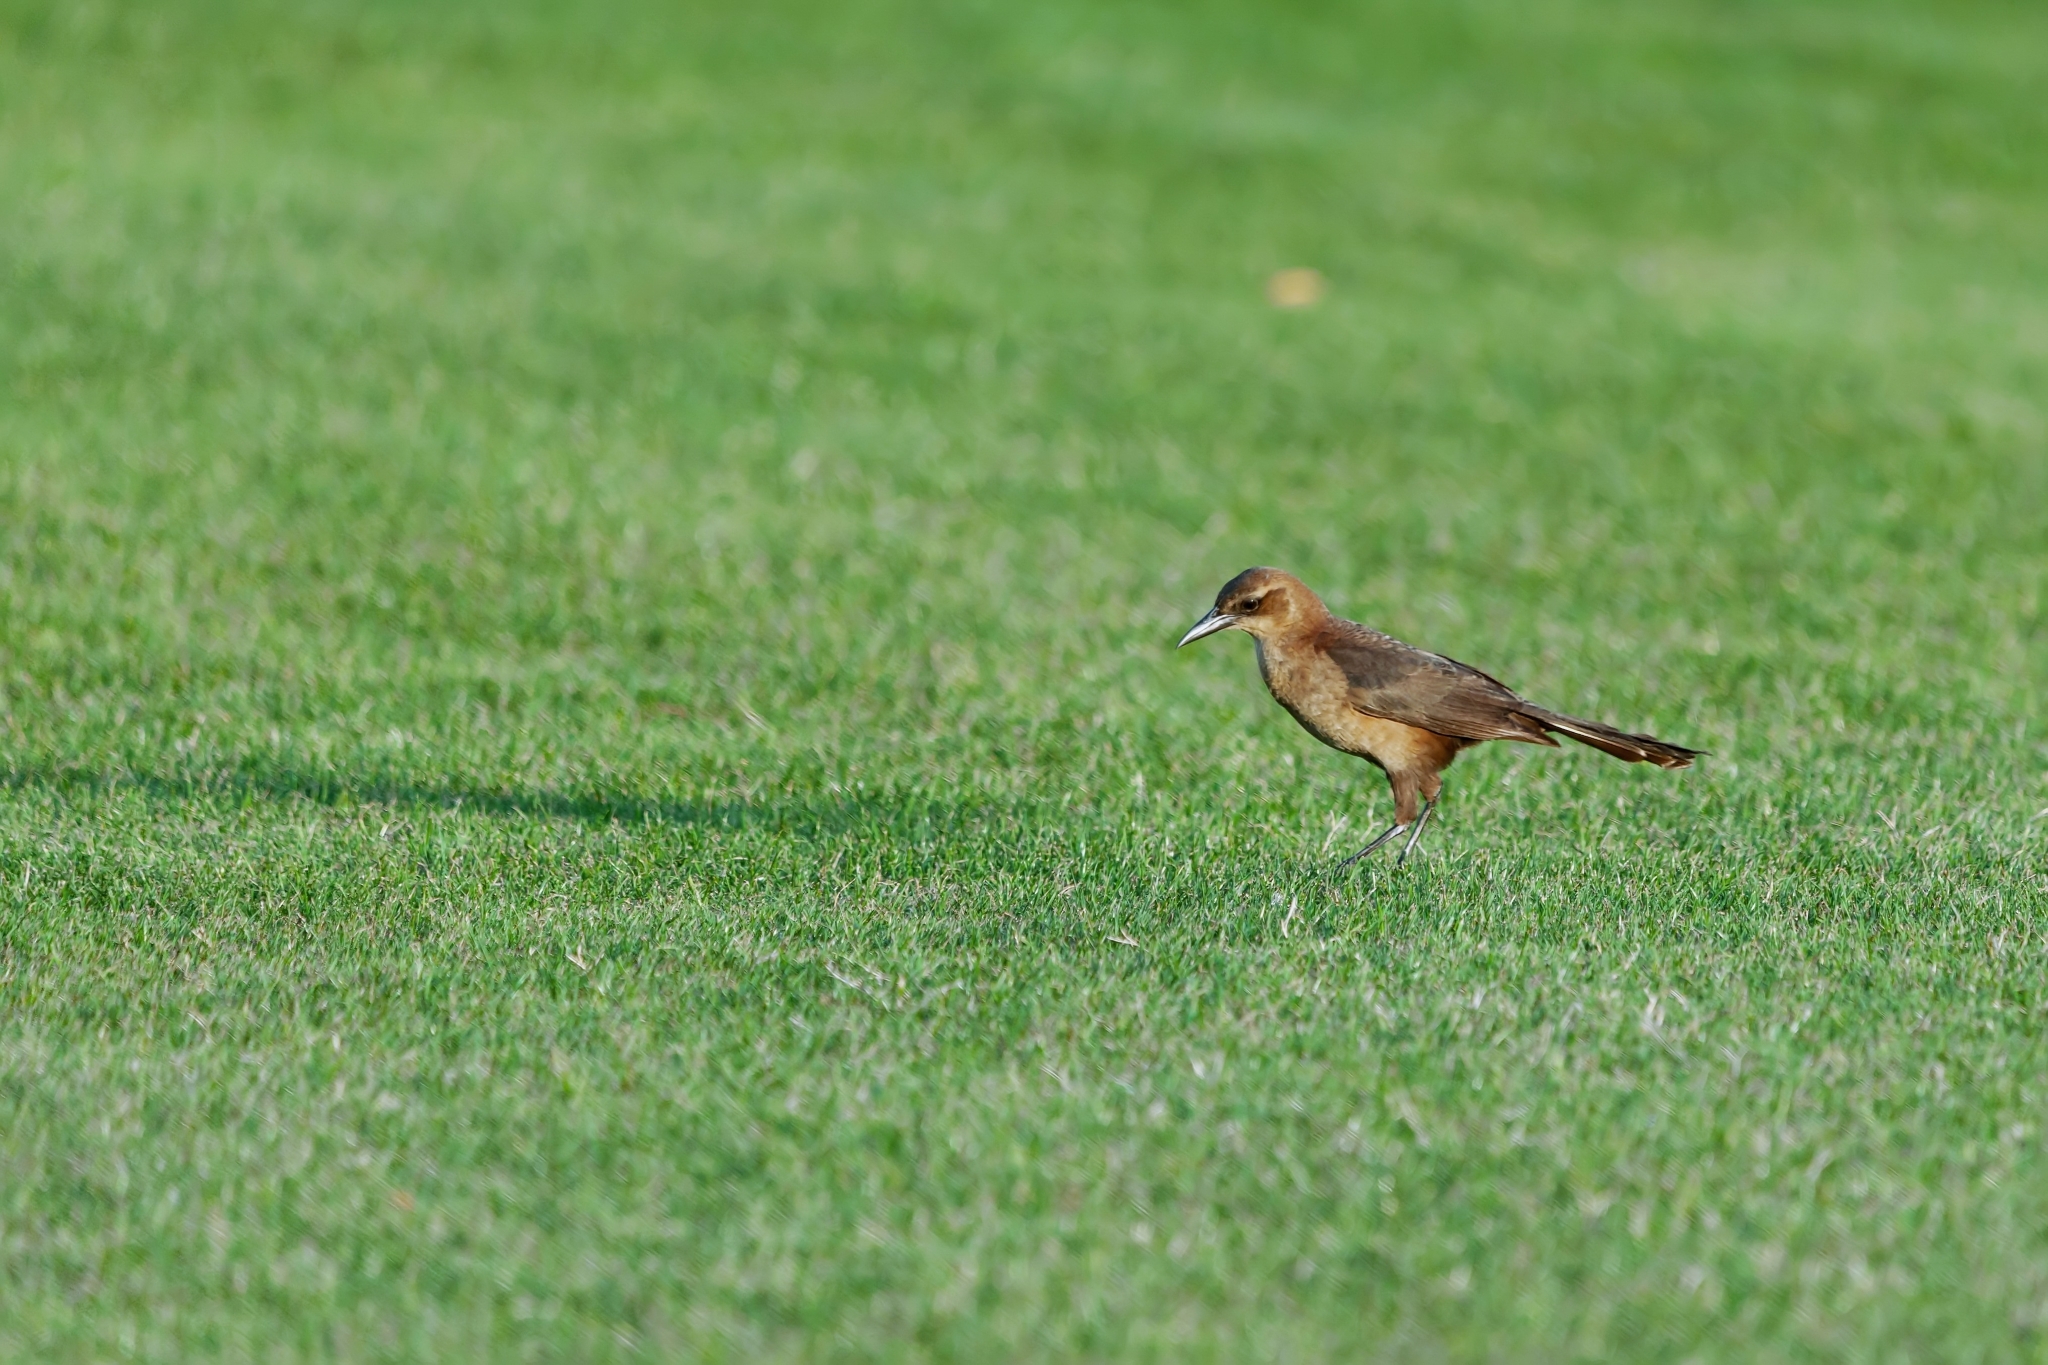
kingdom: Animalia
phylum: Chordata
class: Aves
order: Passeriformes
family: Icteridae
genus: Quiscalus
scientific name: Quiscalus major
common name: Boat-tailed grackle
